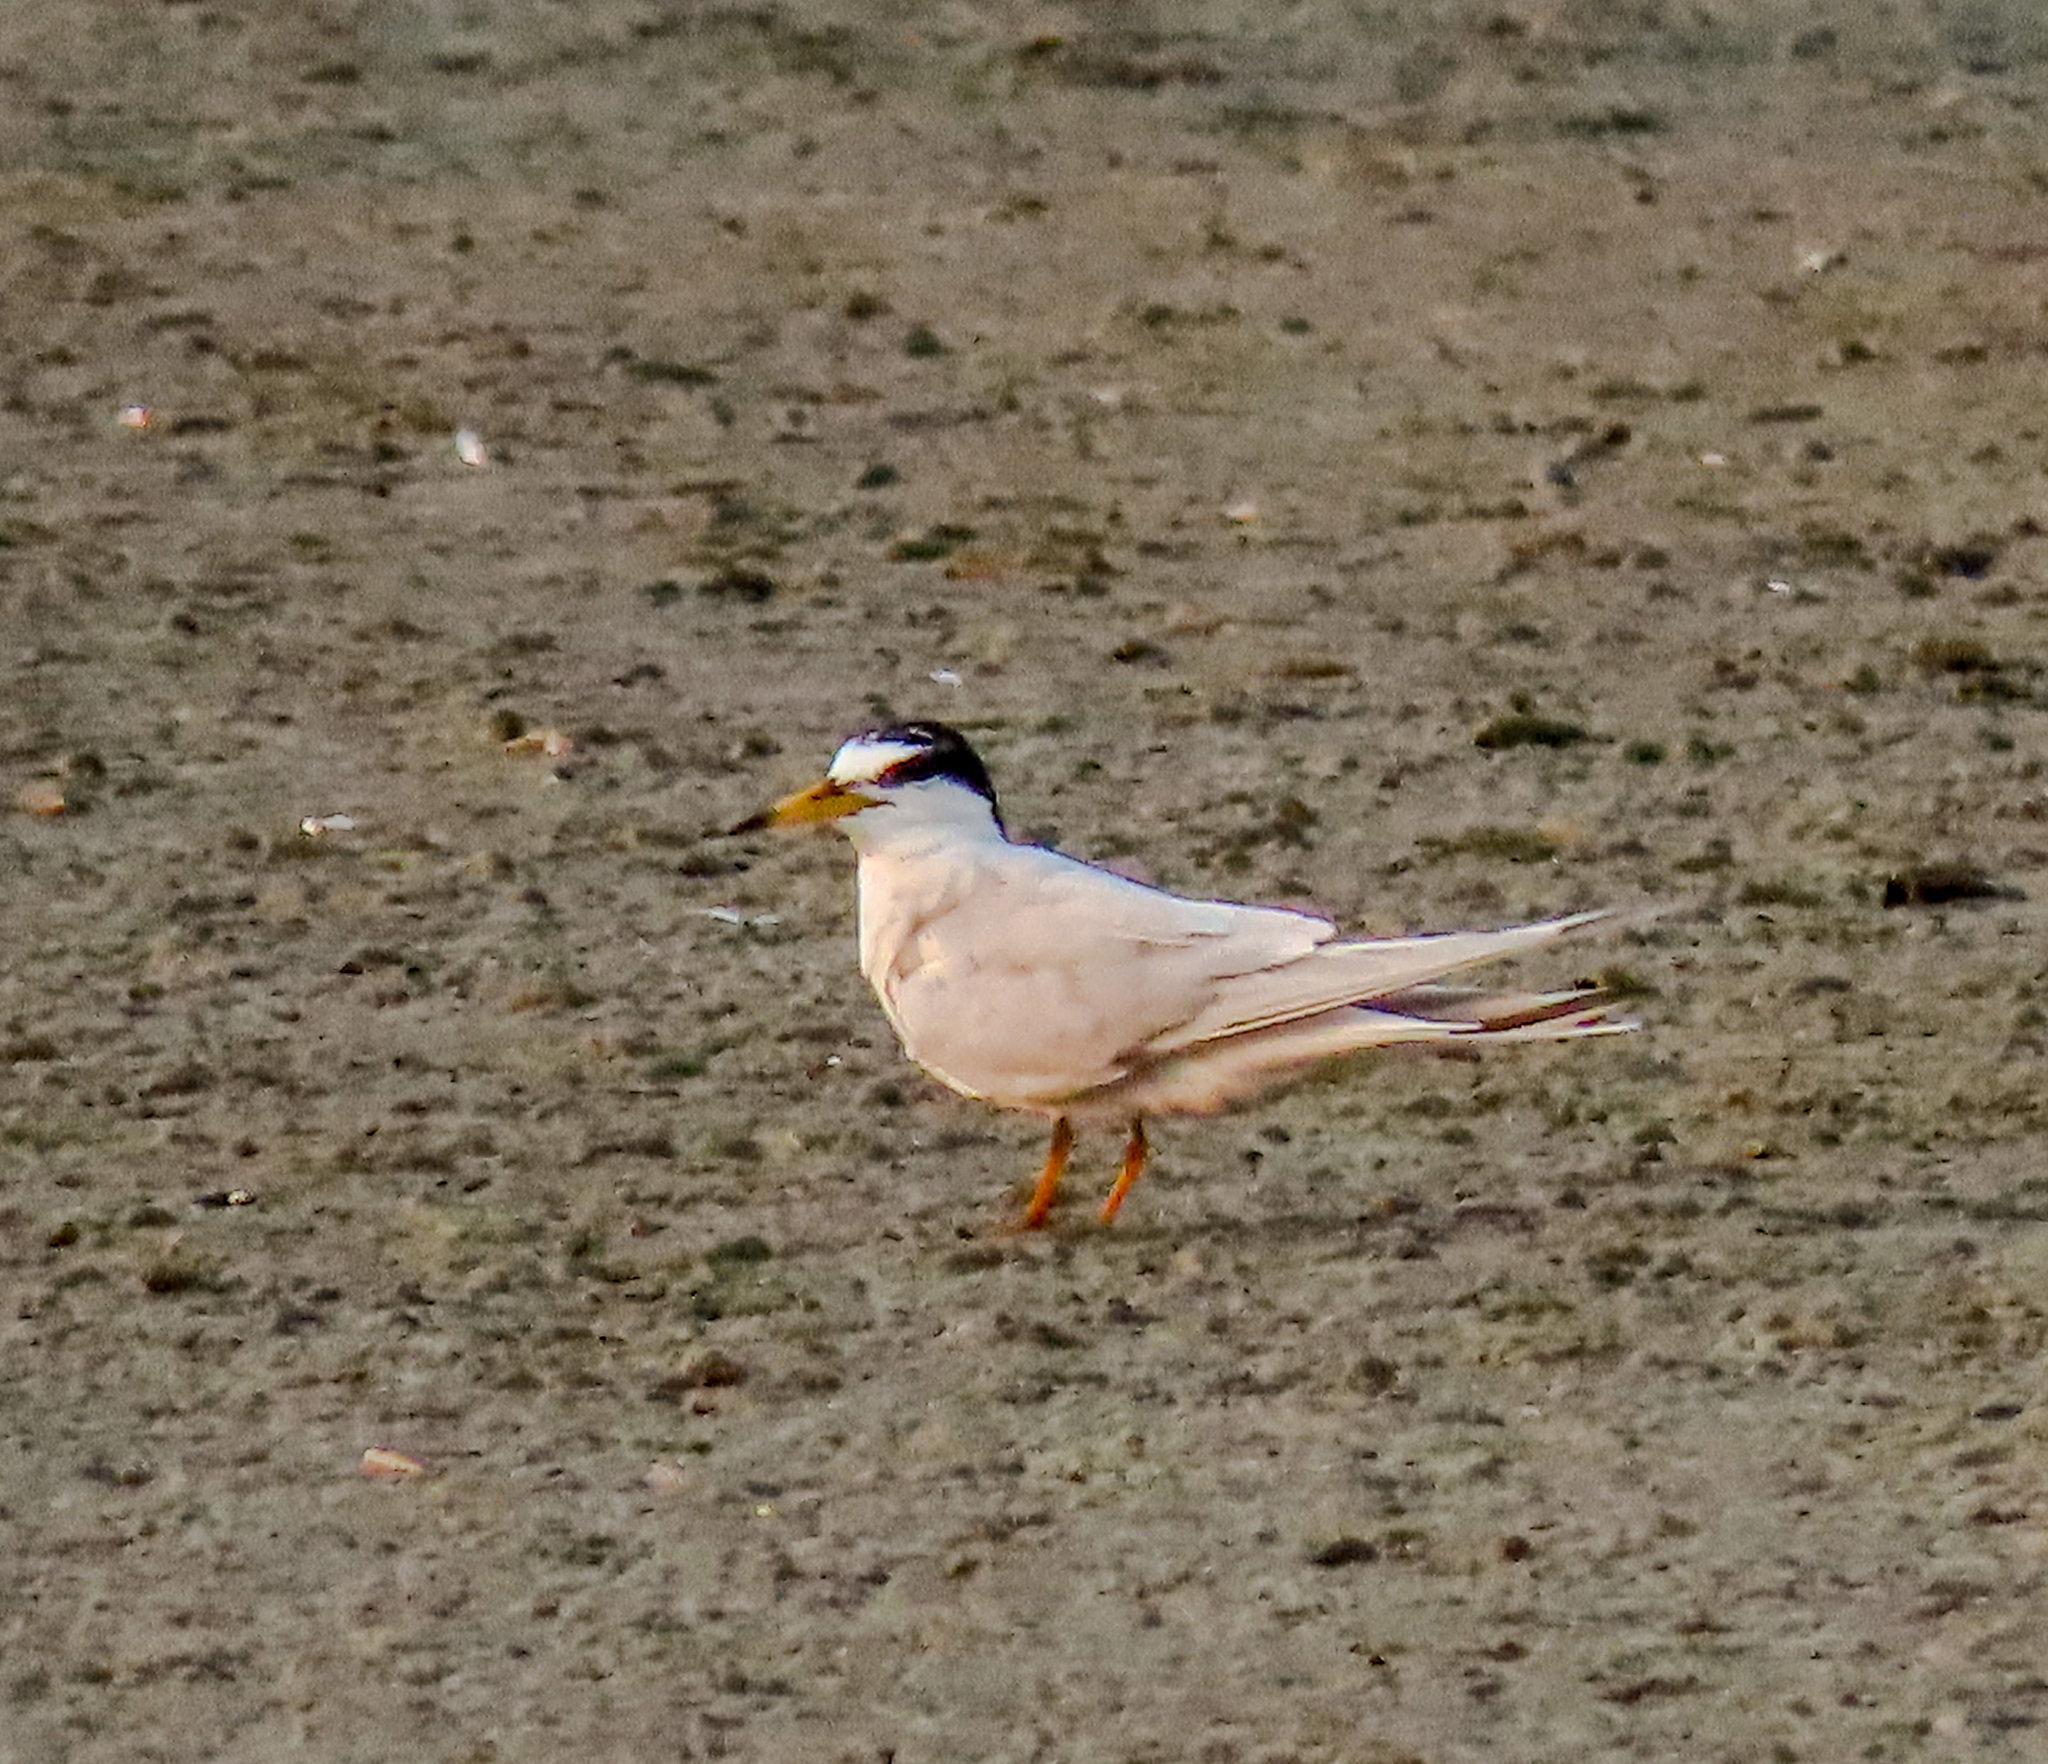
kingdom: Animalia
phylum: Chordata
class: Aves
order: Charadriiformes
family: Laridae
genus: Sternula
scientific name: Sternula albifrons
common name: Little tern
